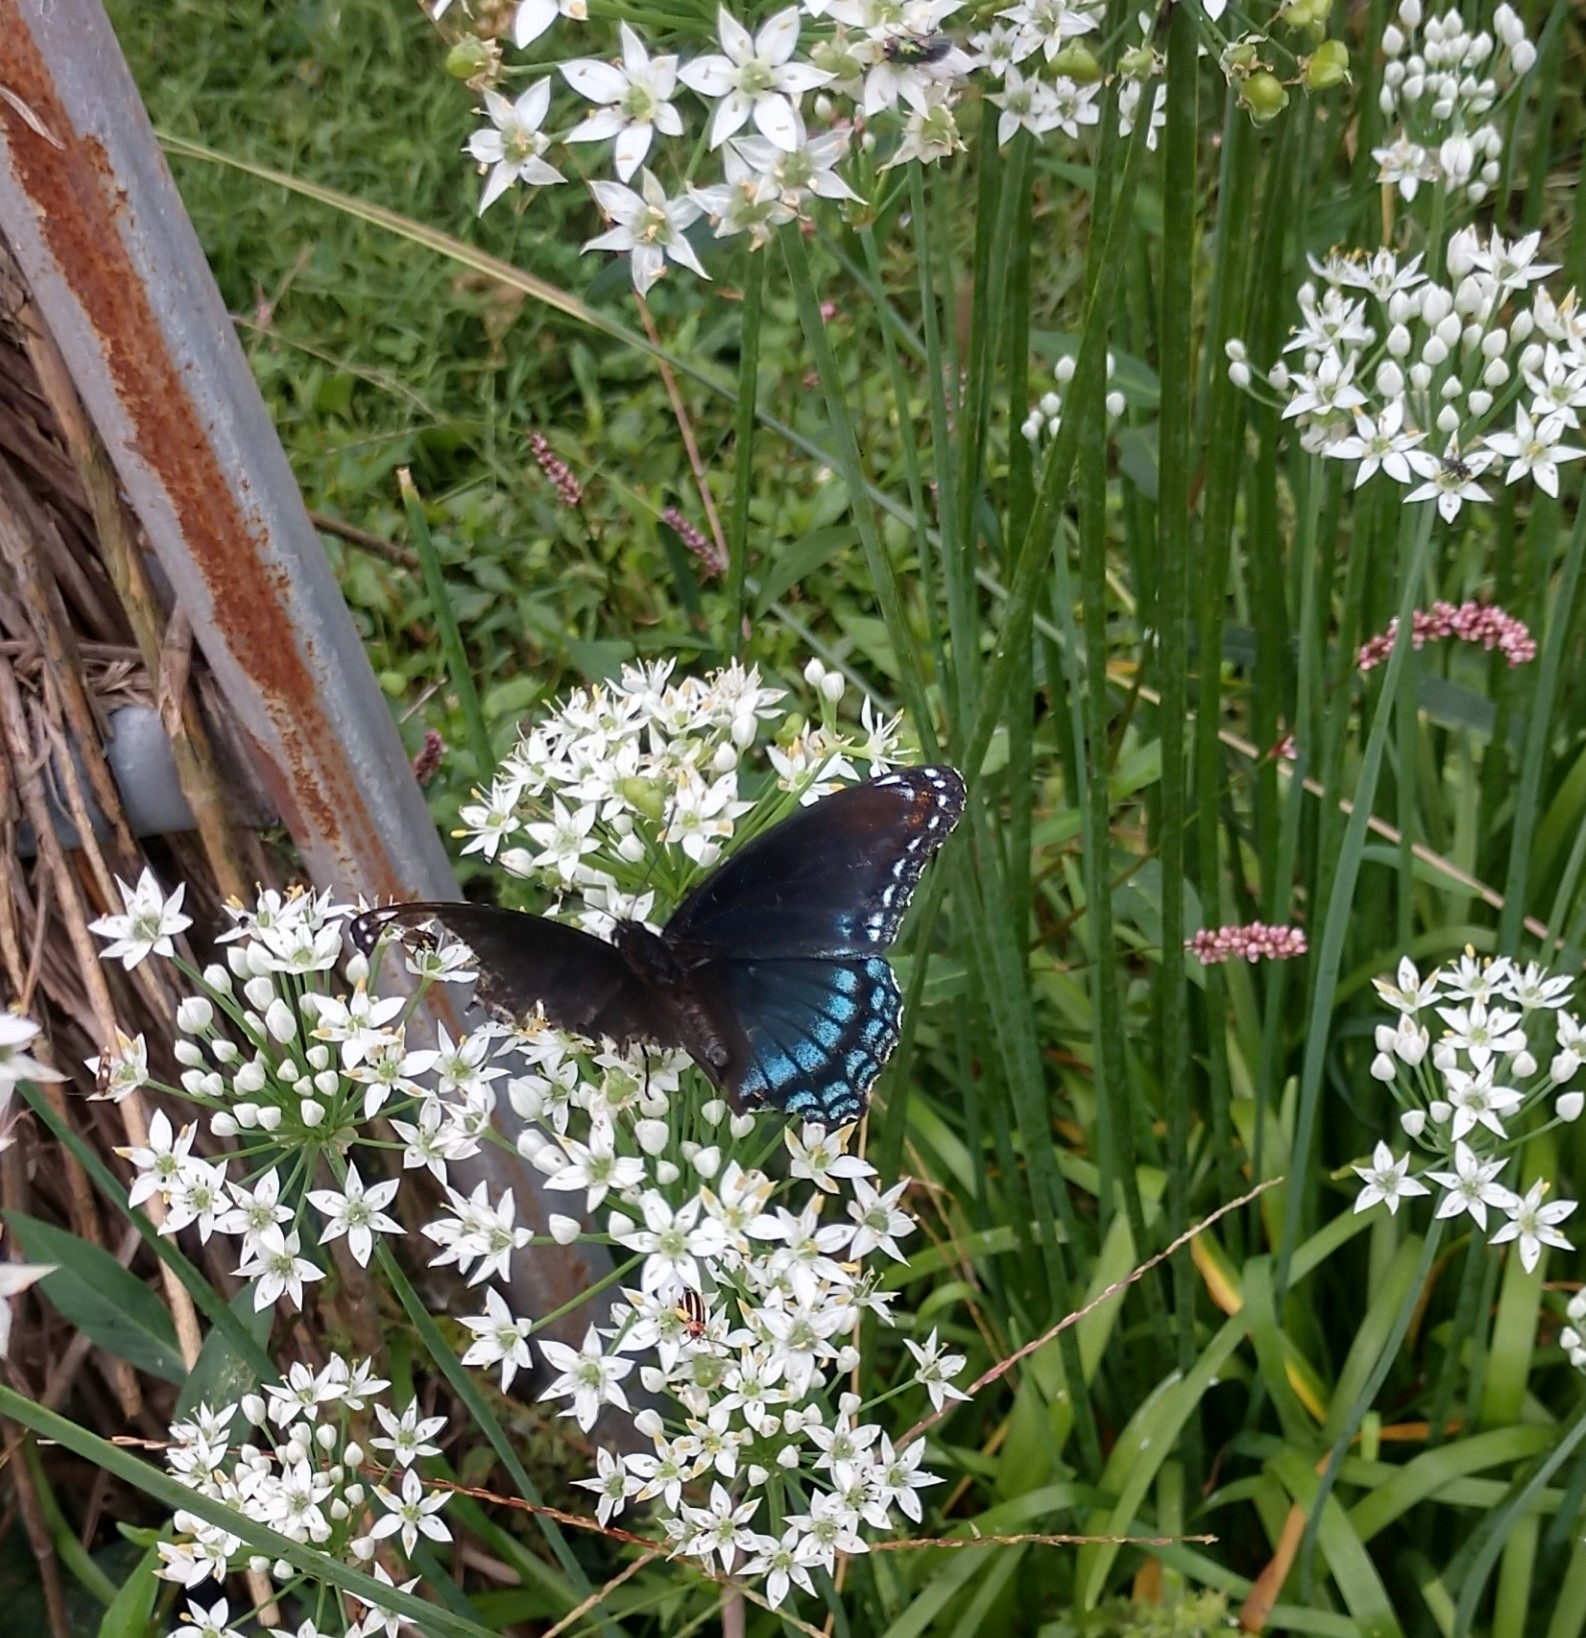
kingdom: Animalia
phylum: Arthropoda
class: Insecta
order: Lepidoptera
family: Nymphalidae
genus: Limenitis
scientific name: Limenitis astyanax
